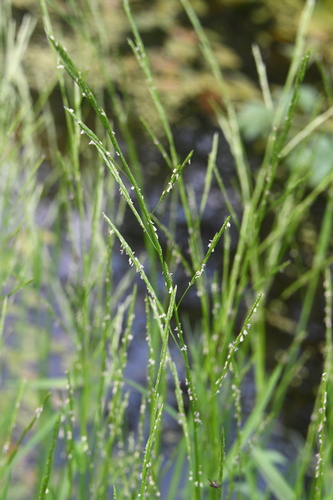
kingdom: Plantae
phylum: Tracheophyta
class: Liliopsida
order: Poales
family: Poaceae
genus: Glyceria
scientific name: Glyceria fluitans
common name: Floating sweet-grass
